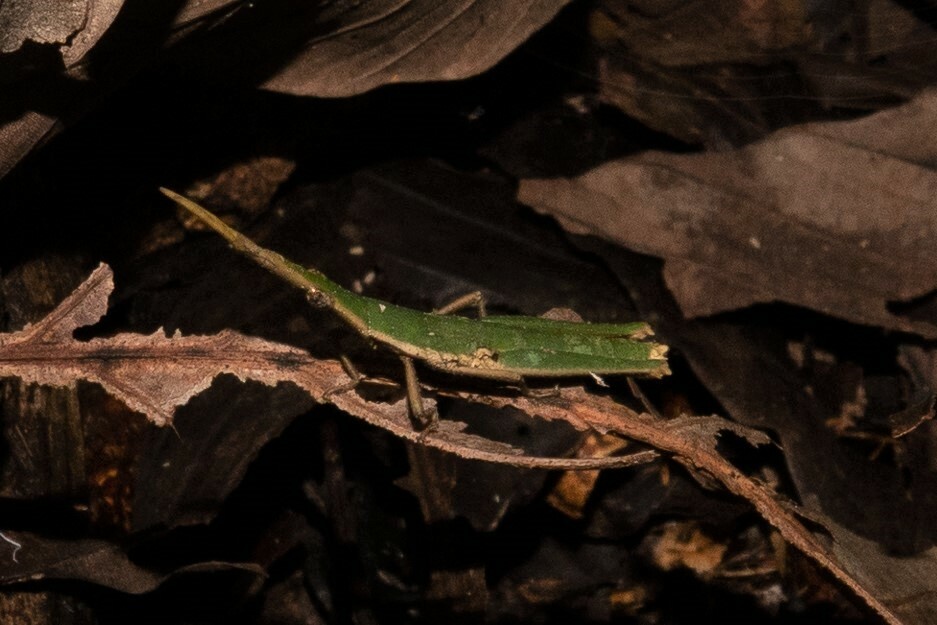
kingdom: Animalia
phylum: Arthropoda
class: Insecta
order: Orthoptera
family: Pyrgomorphidae
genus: Omura
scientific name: Omura congrua
